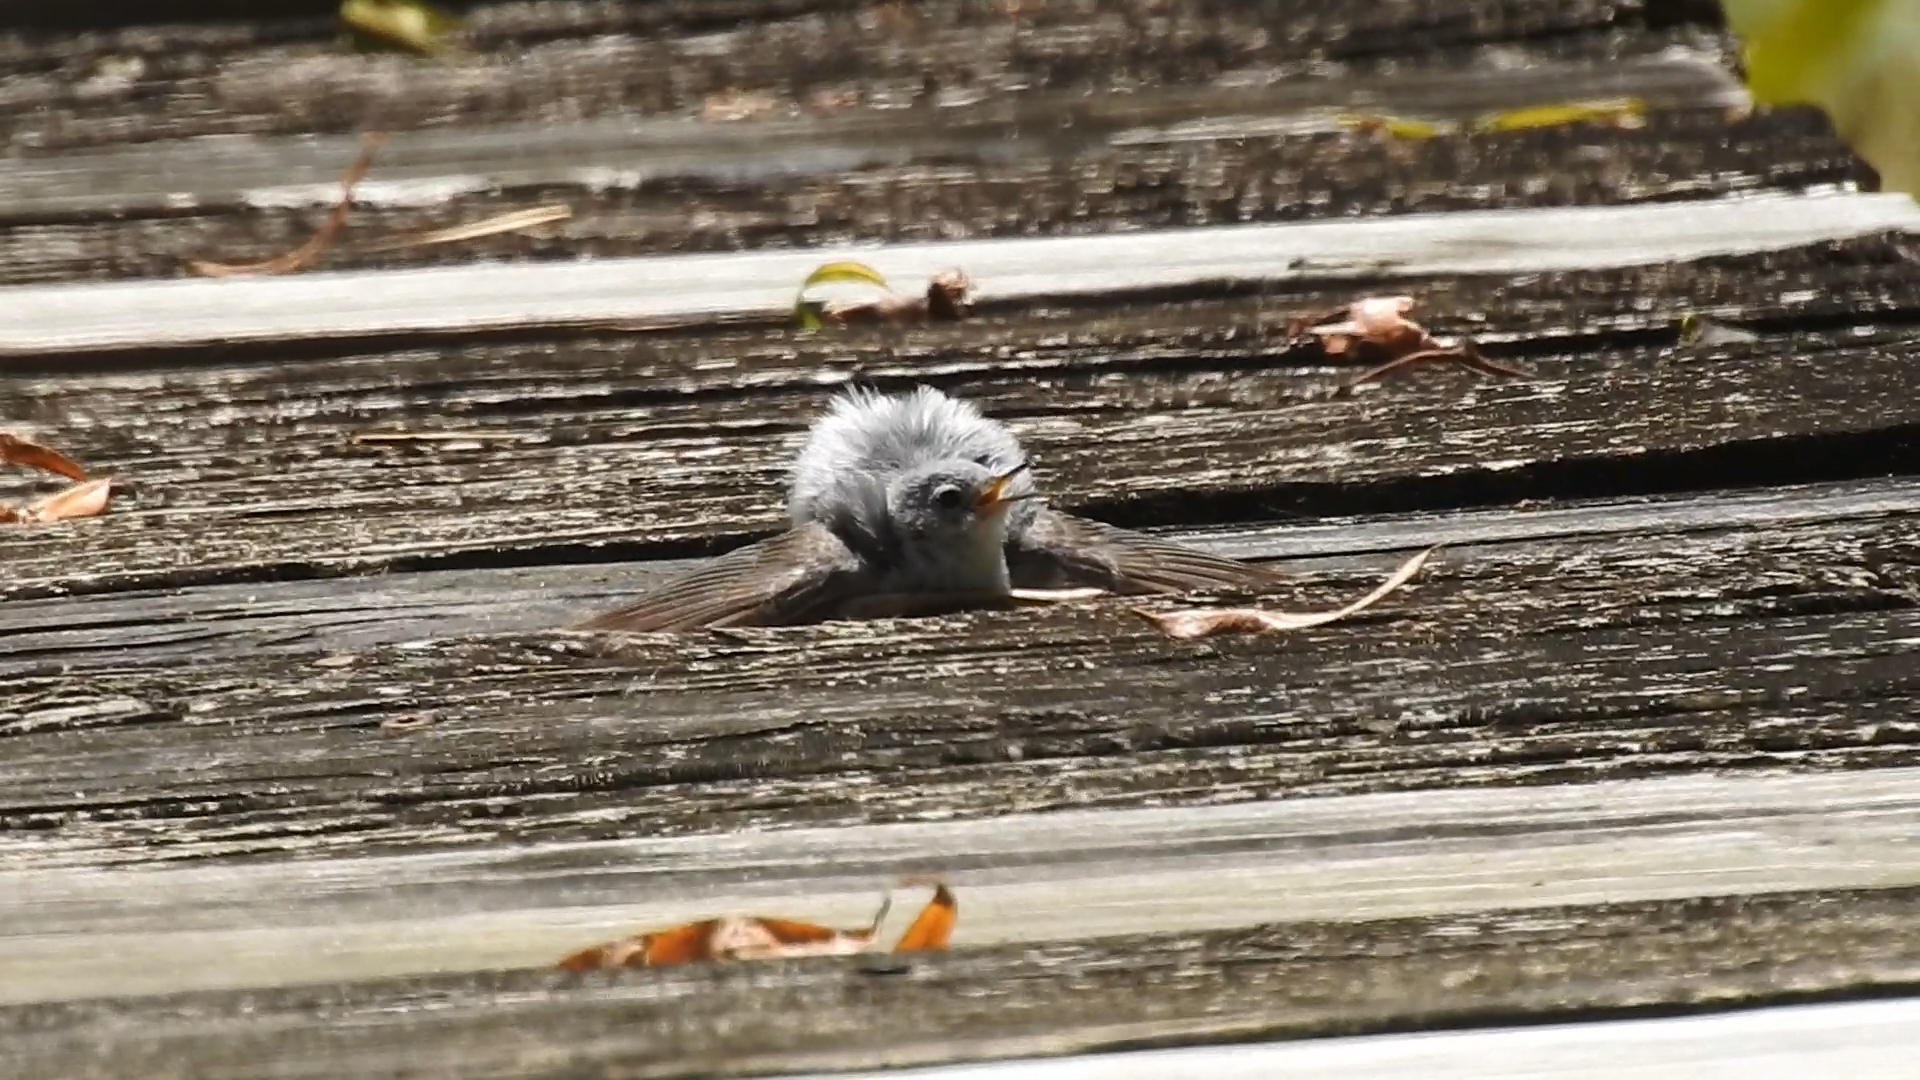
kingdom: Animalia
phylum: Chordata
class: Aves
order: Passeriformes
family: Polioptilidae
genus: Polioptila
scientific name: Polioptila caerulea
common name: Blue-gray gnatcatcher
